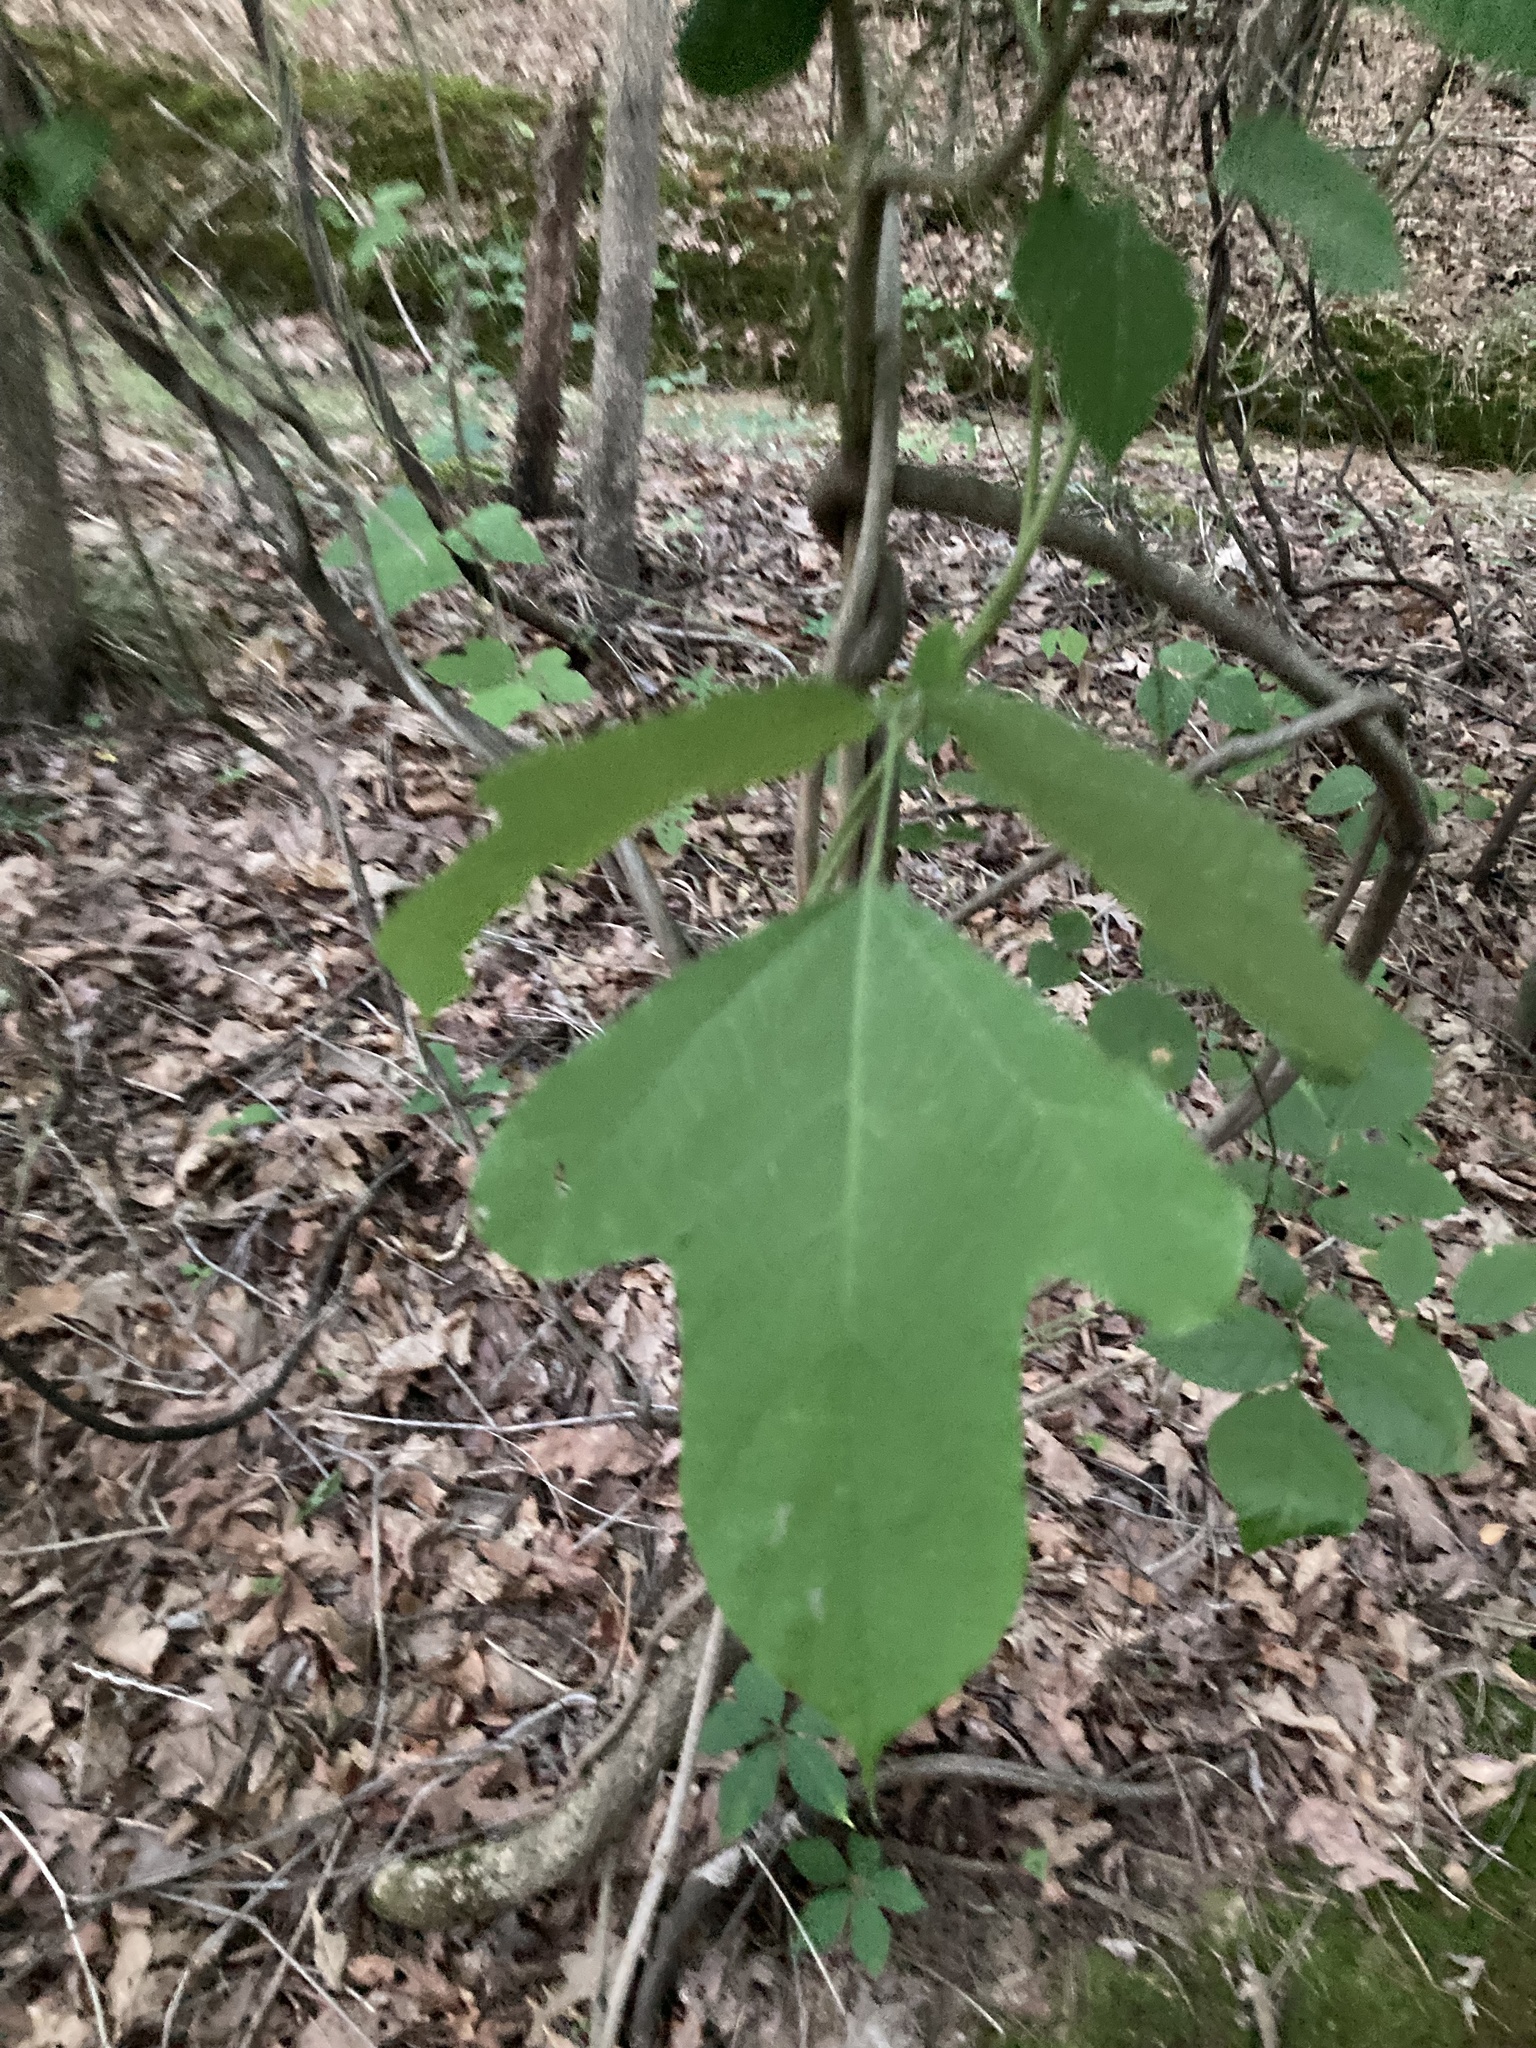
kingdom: Plantae
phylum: Tracheophyta
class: Magnoliopsida
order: Laurales
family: Lauraceae
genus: Sassafras
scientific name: Sassafras albidum
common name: Sassafras
